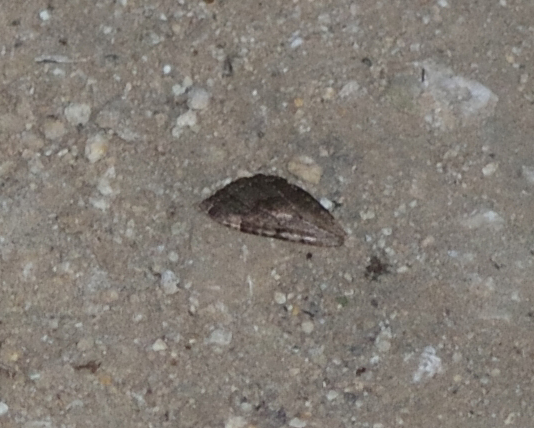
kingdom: Animalia
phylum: Arthropoda
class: Insecta
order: Lepidoptera
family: Geometridae
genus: Triphosa
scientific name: Triphosa dubitata
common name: Tissue
